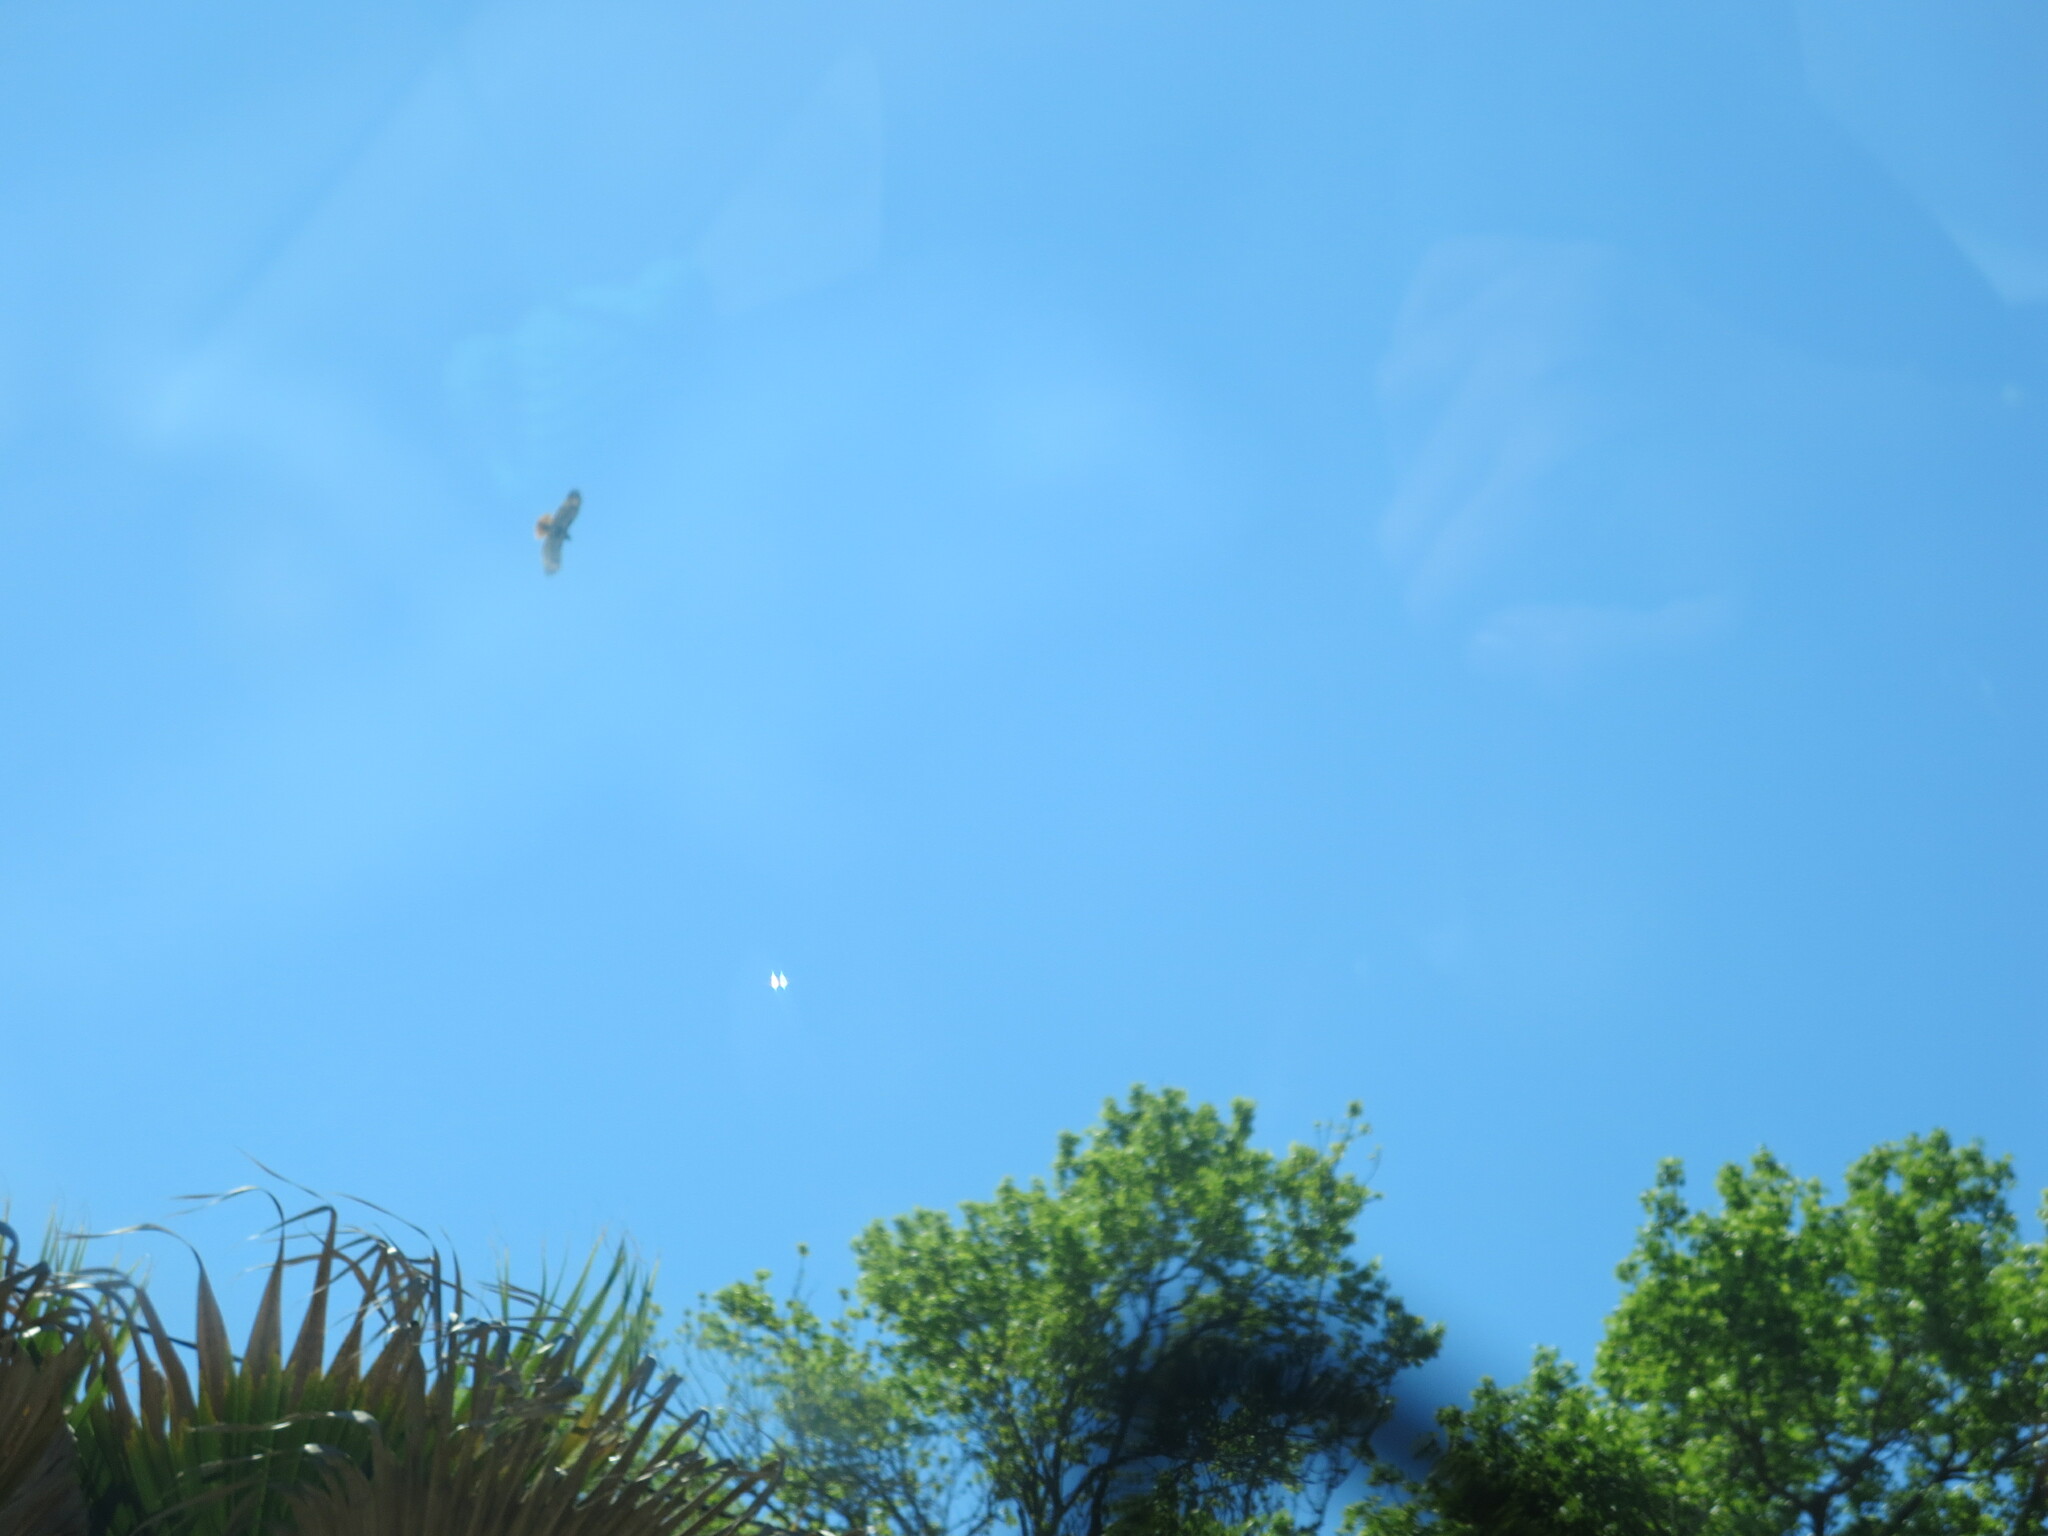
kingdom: Animalia
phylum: Chordata
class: Aves
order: Accipitriformes
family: Accipitridae
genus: Buteo
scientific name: Buteo jamaicensis
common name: Red-tailed hawk
